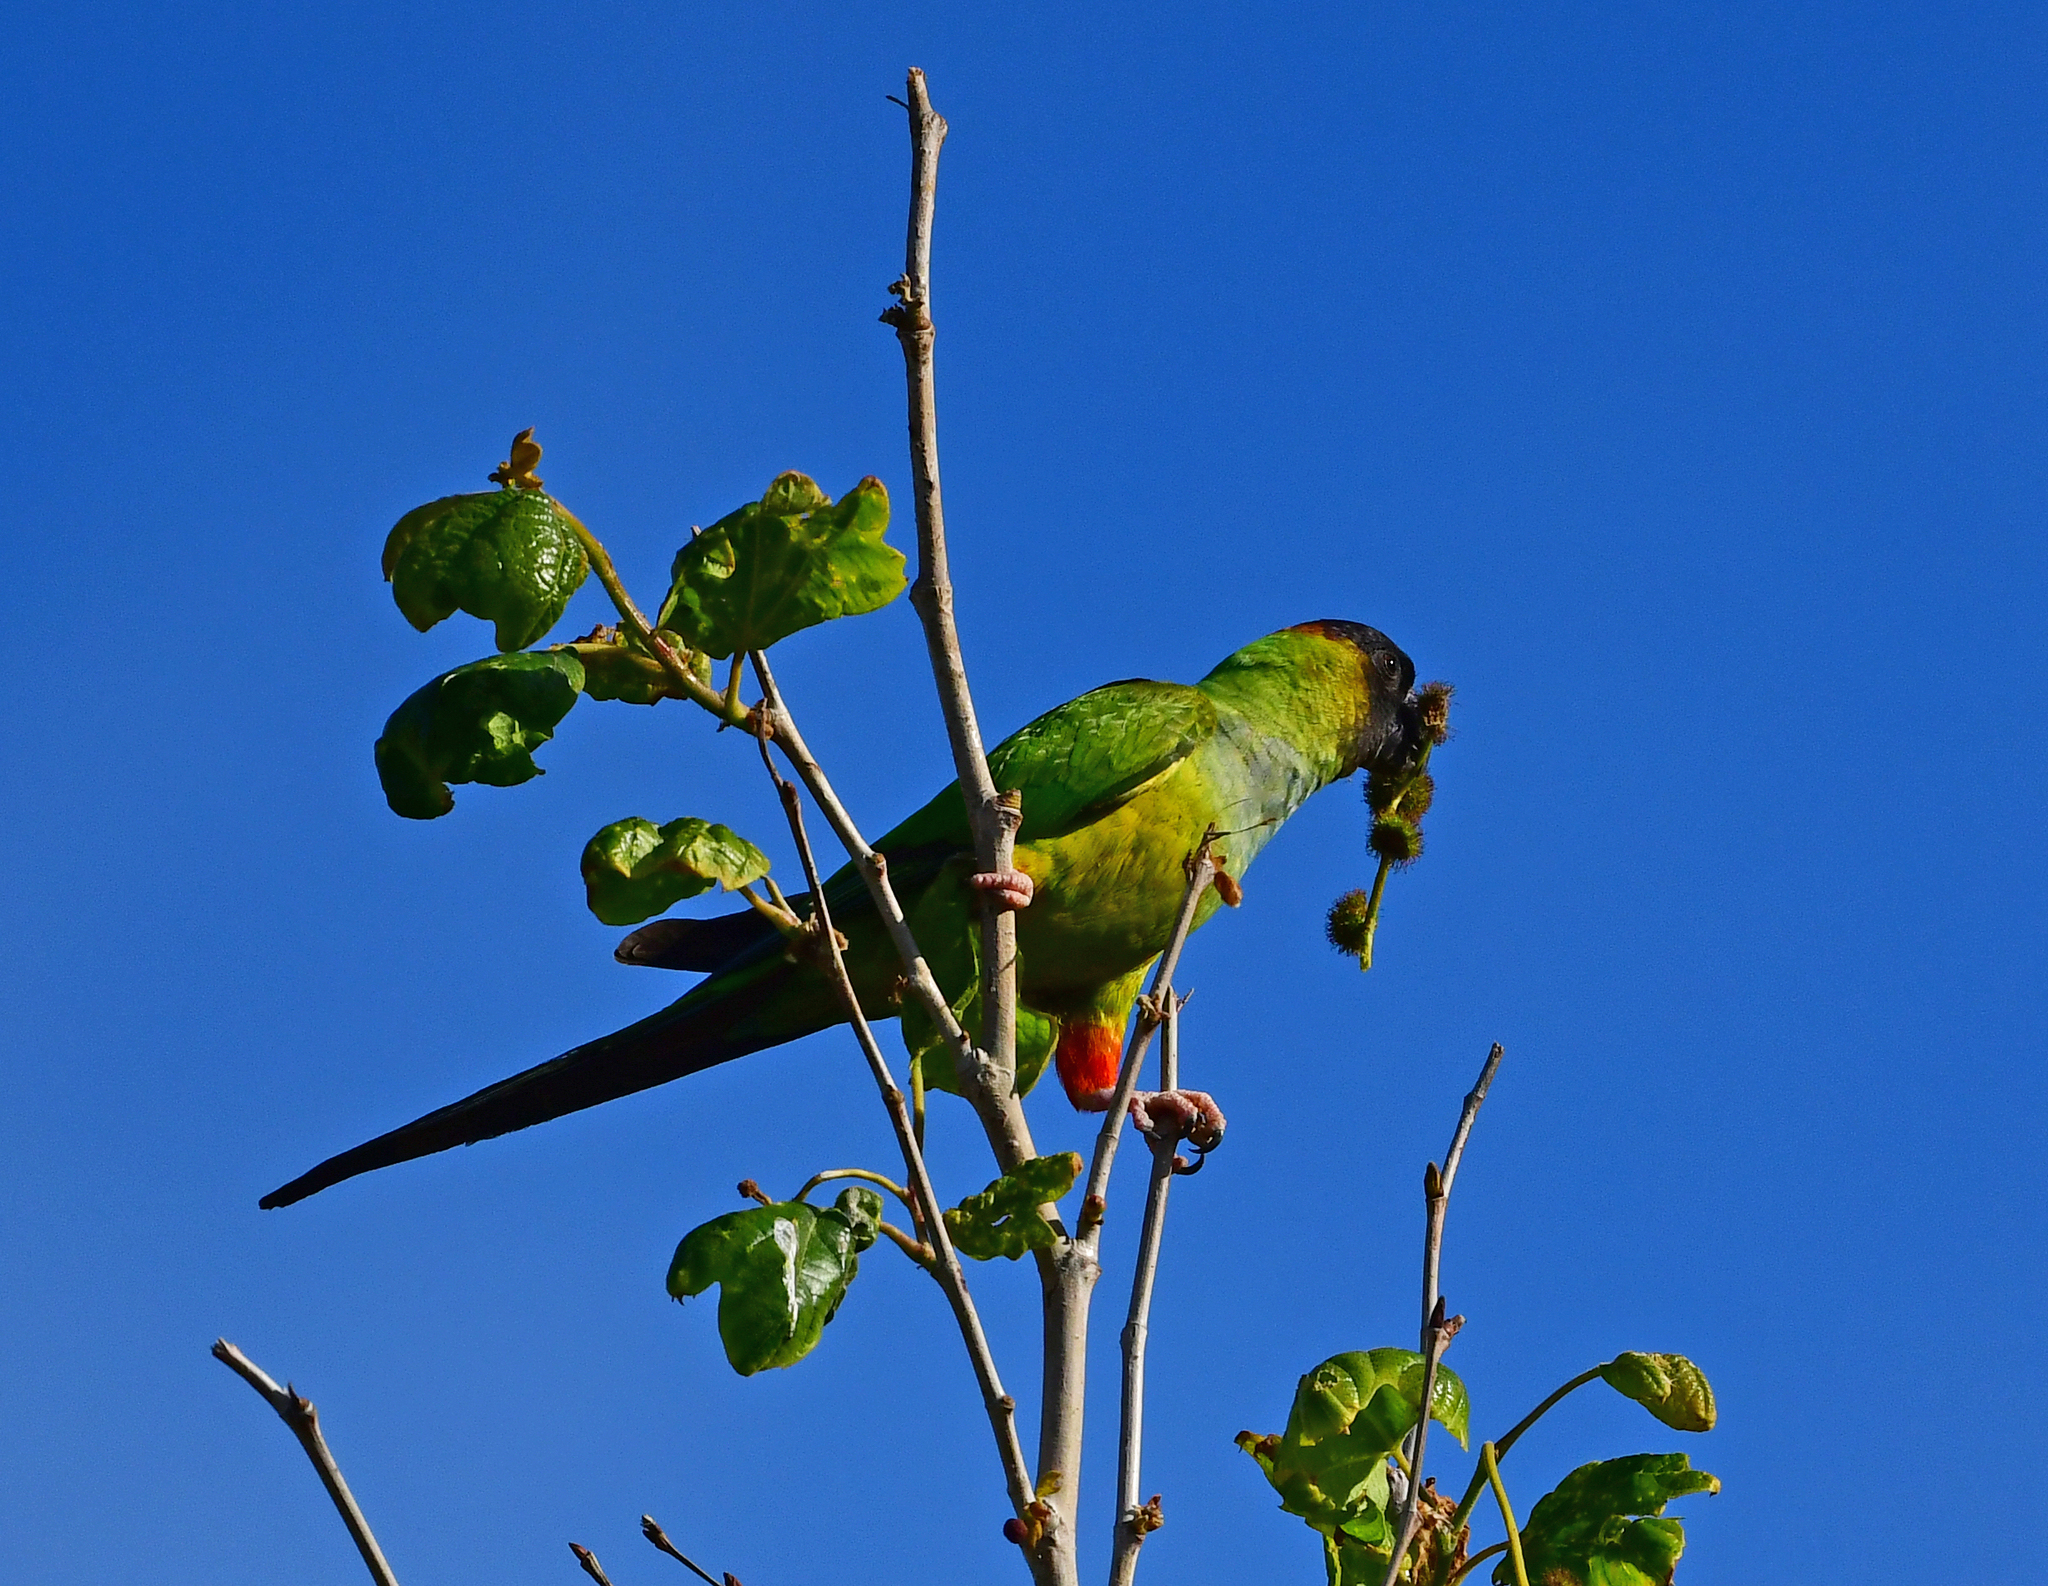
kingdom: Animalia
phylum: Chordata
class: Aves
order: Psittaciformes
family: Psittacidae
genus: Nandayus
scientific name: Nandayus nenday
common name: Nanday parakeet
